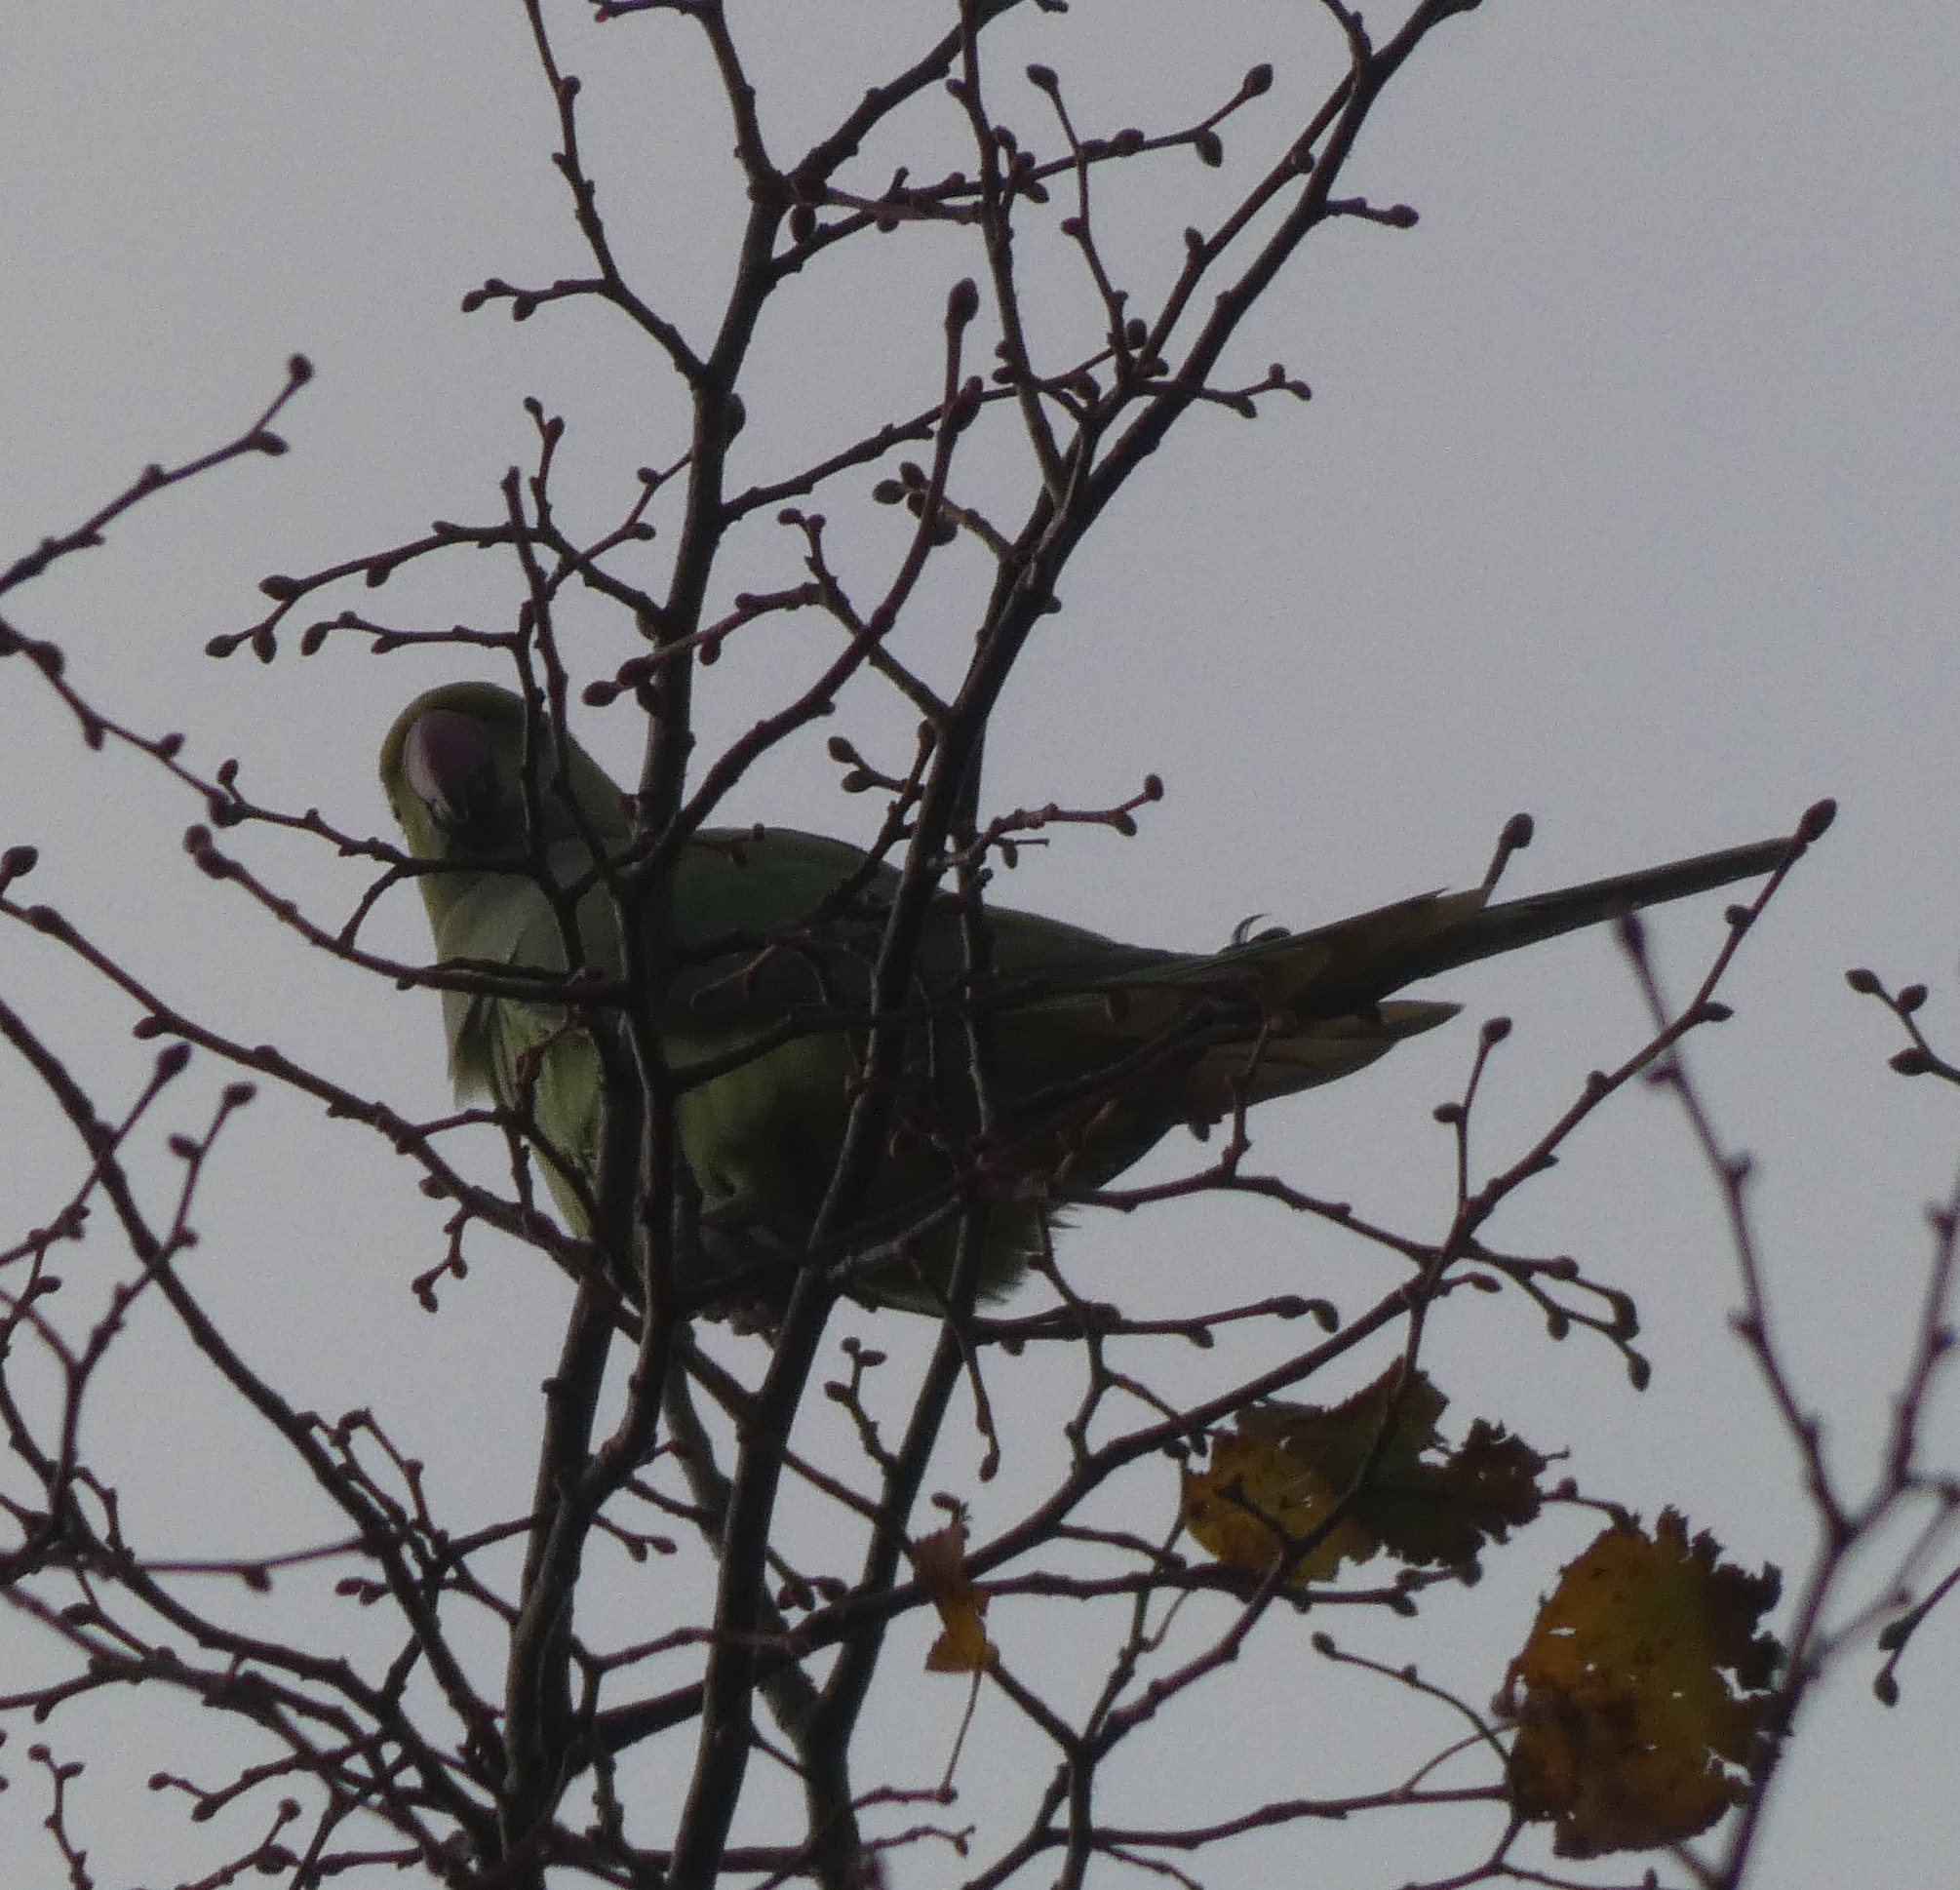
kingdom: Animalia
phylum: Chordata
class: Aves
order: Psittaciformes
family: Psittacidae
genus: Psittacula
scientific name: Psittacula krameri
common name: Rose-ringed parakeet
